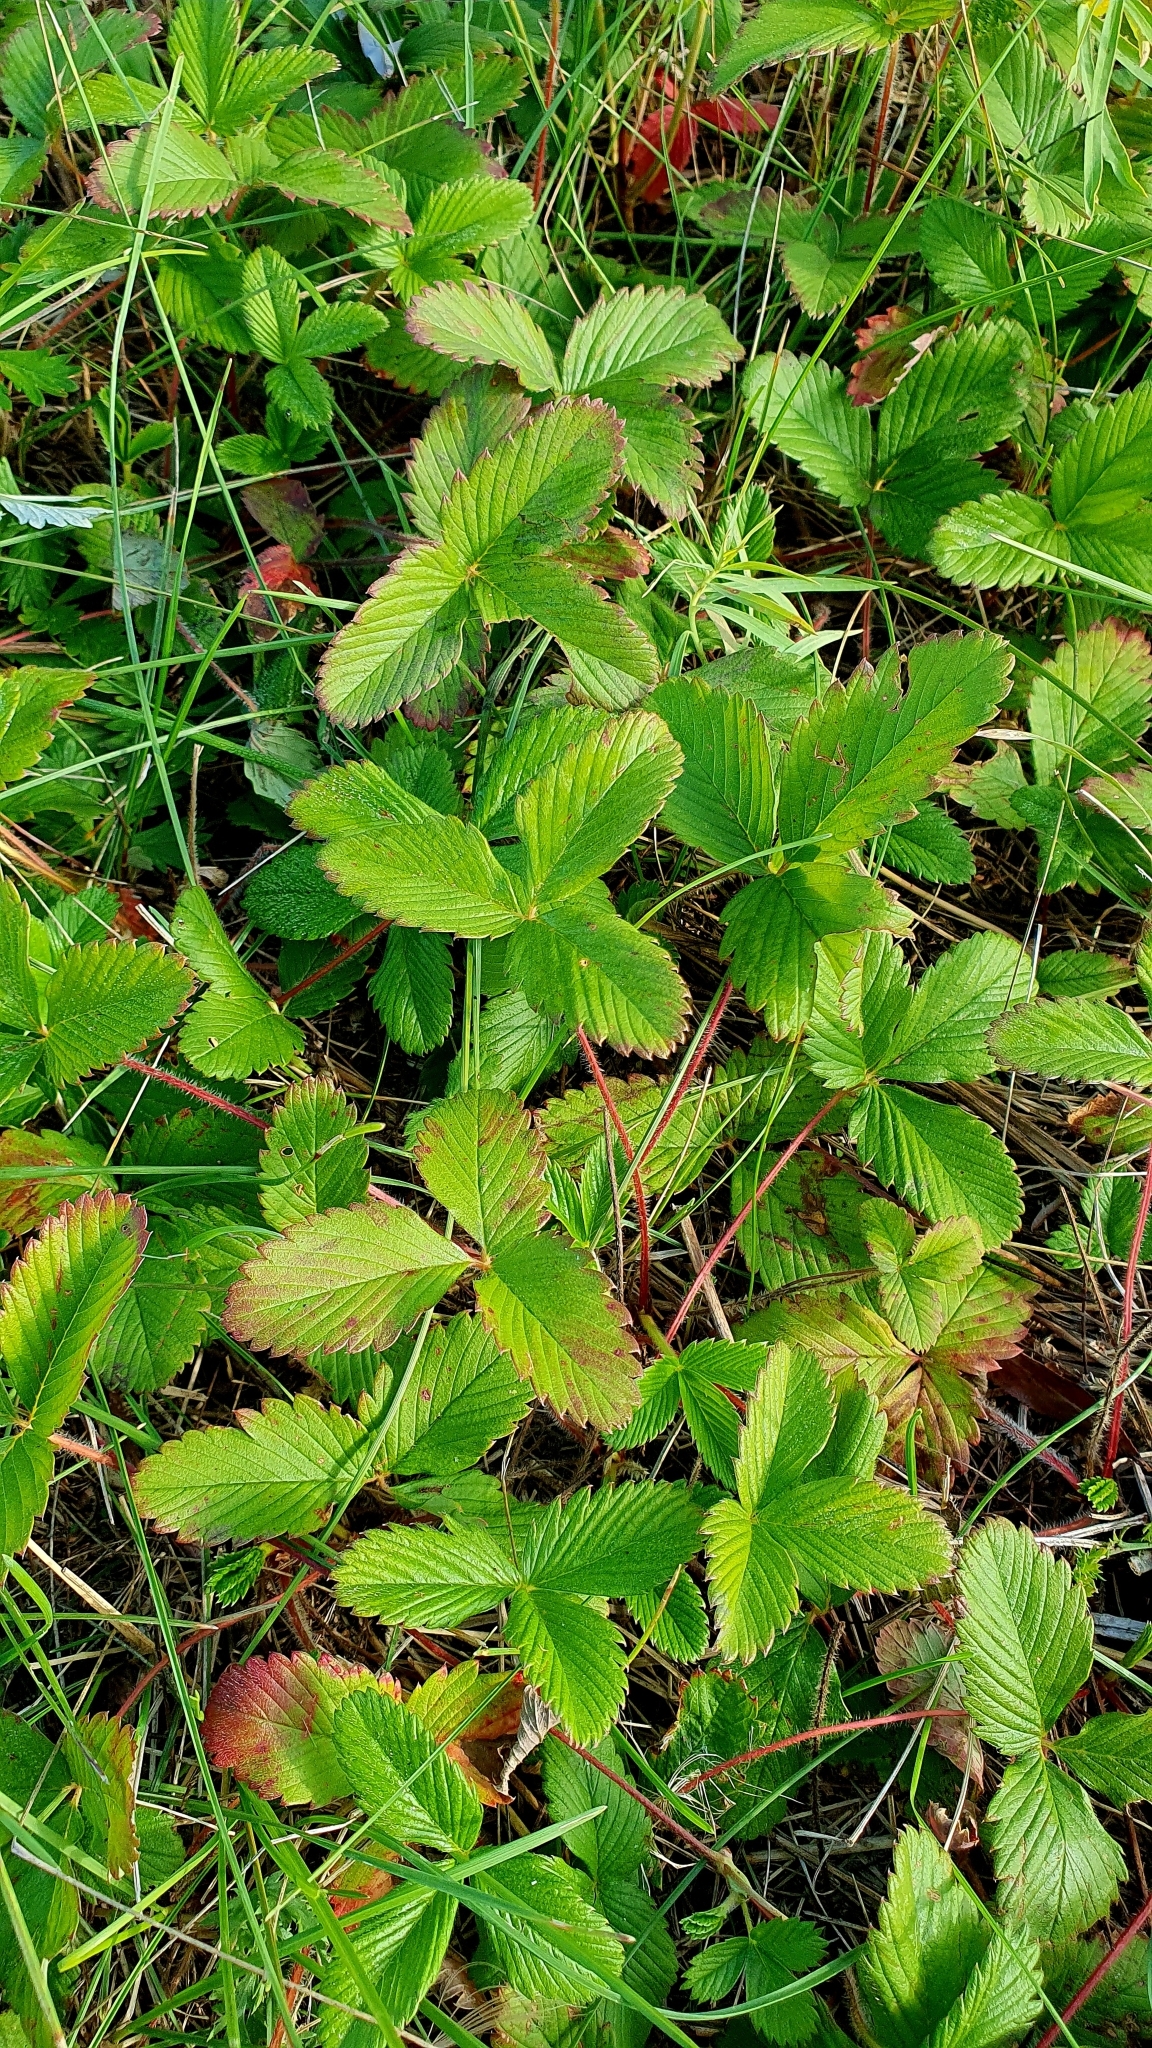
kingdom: Plantae
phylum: Tracheophyta
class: Magnoliopsida
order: Rosales
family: Rosaceae
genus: Fragaria
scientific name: Fragaria viridis
